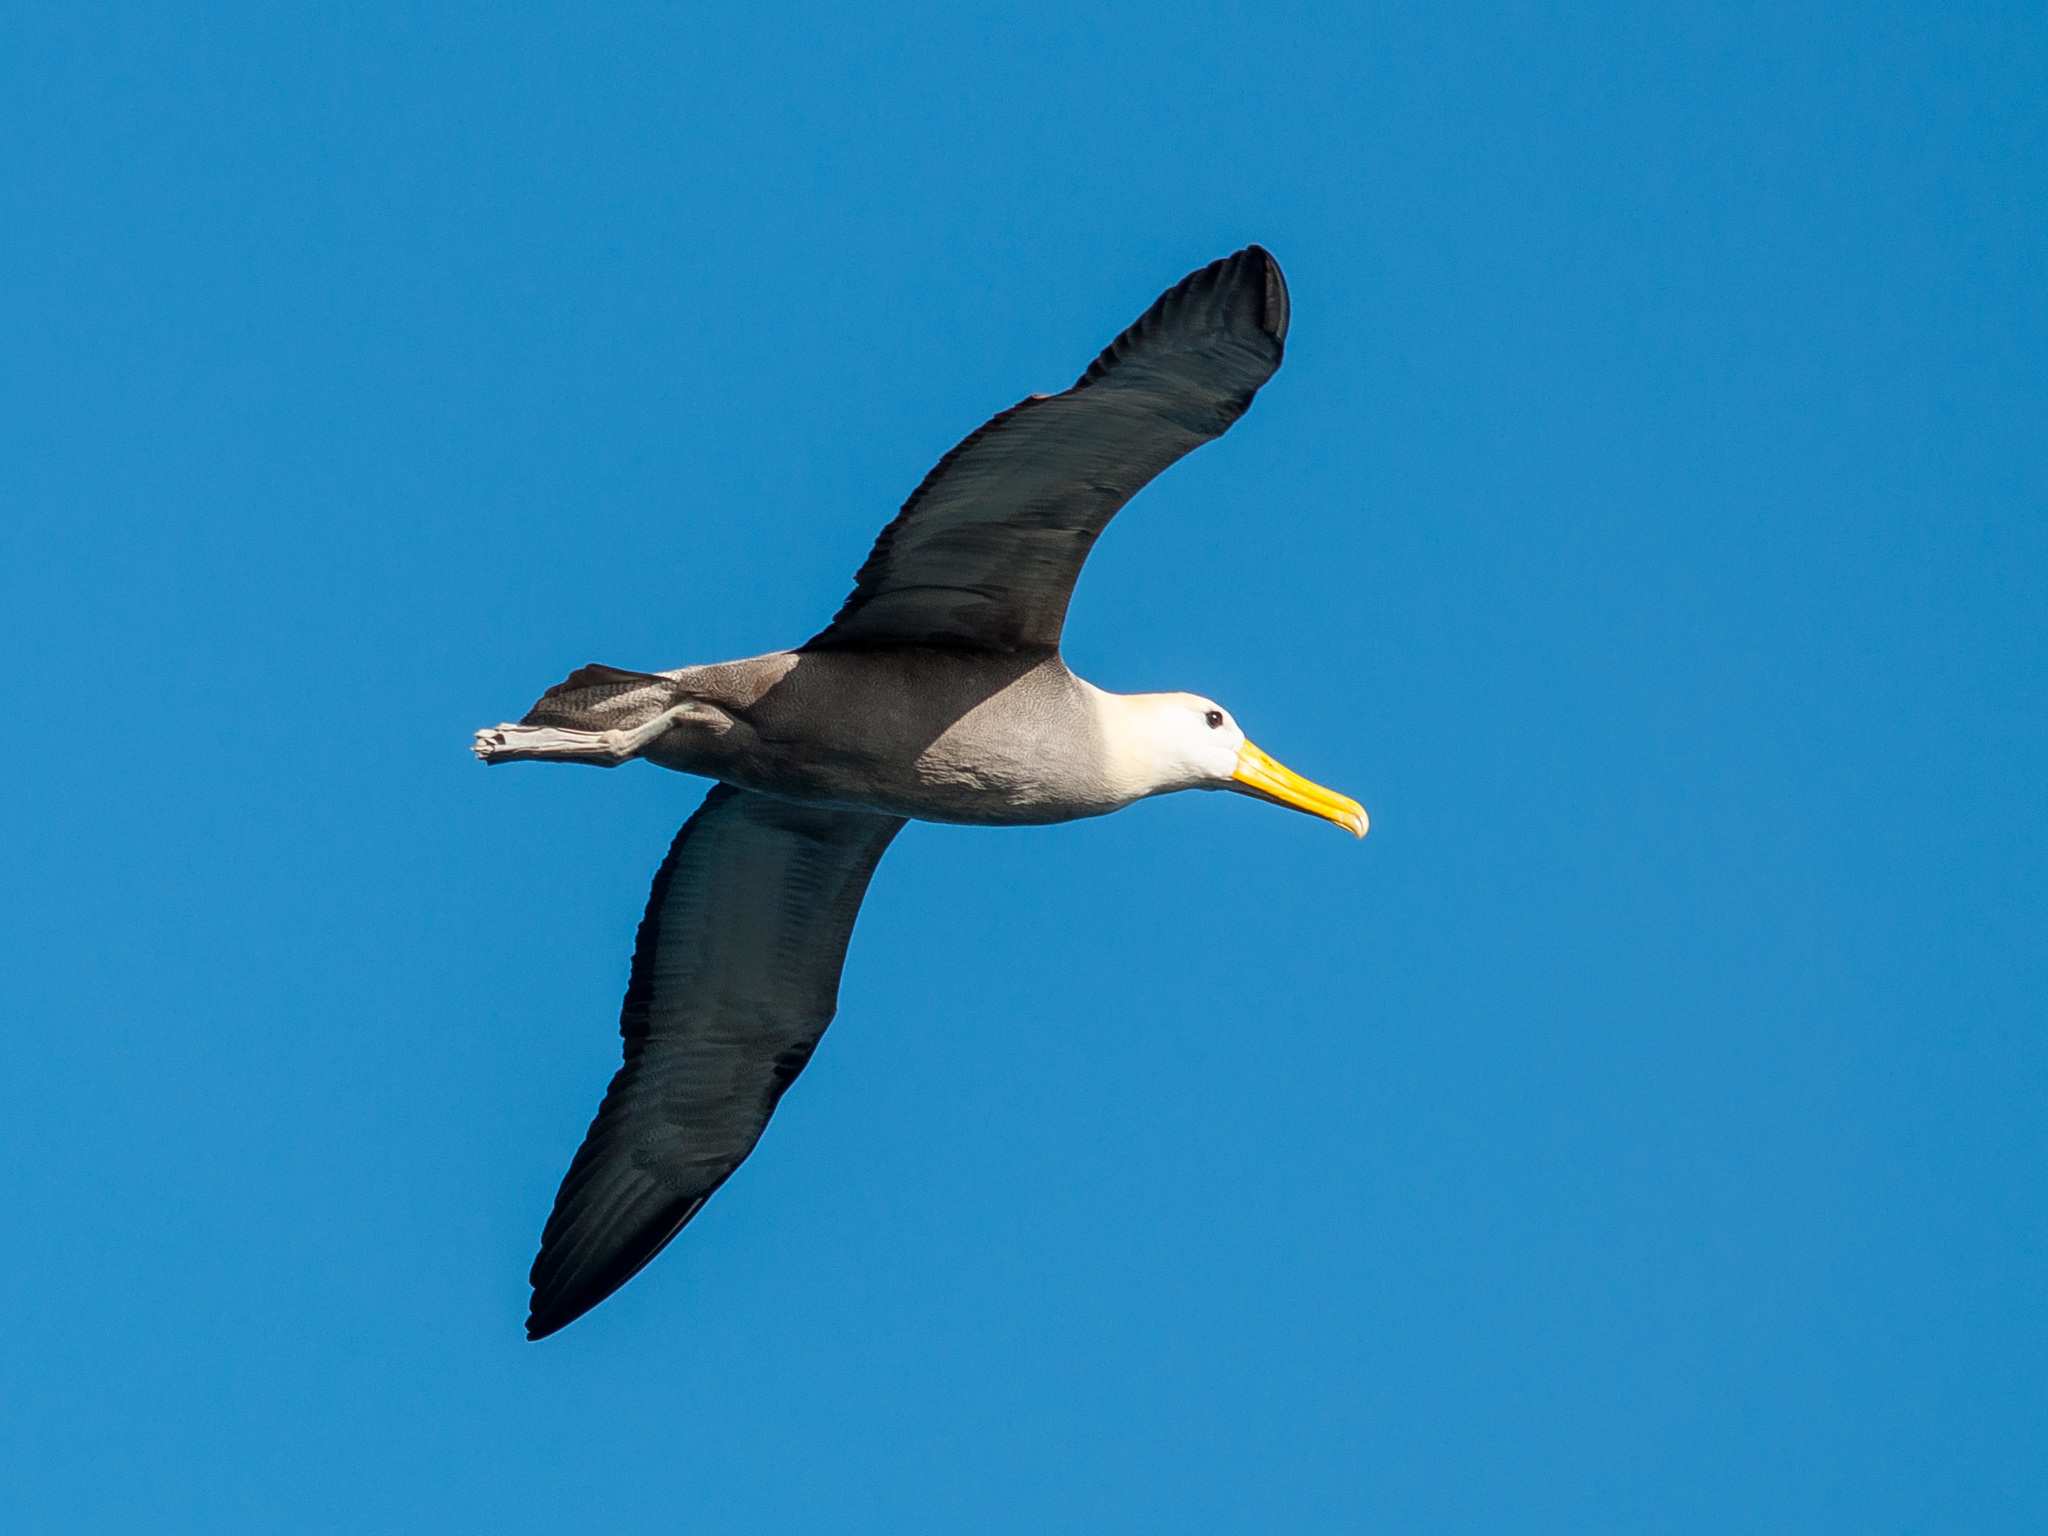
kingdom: Animalia
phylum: Chordata
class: Aves
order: Procellariiformes
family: Diomedeidae
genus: Phoebastria
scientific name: Phoebastria irrorata
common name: Waved albatross
